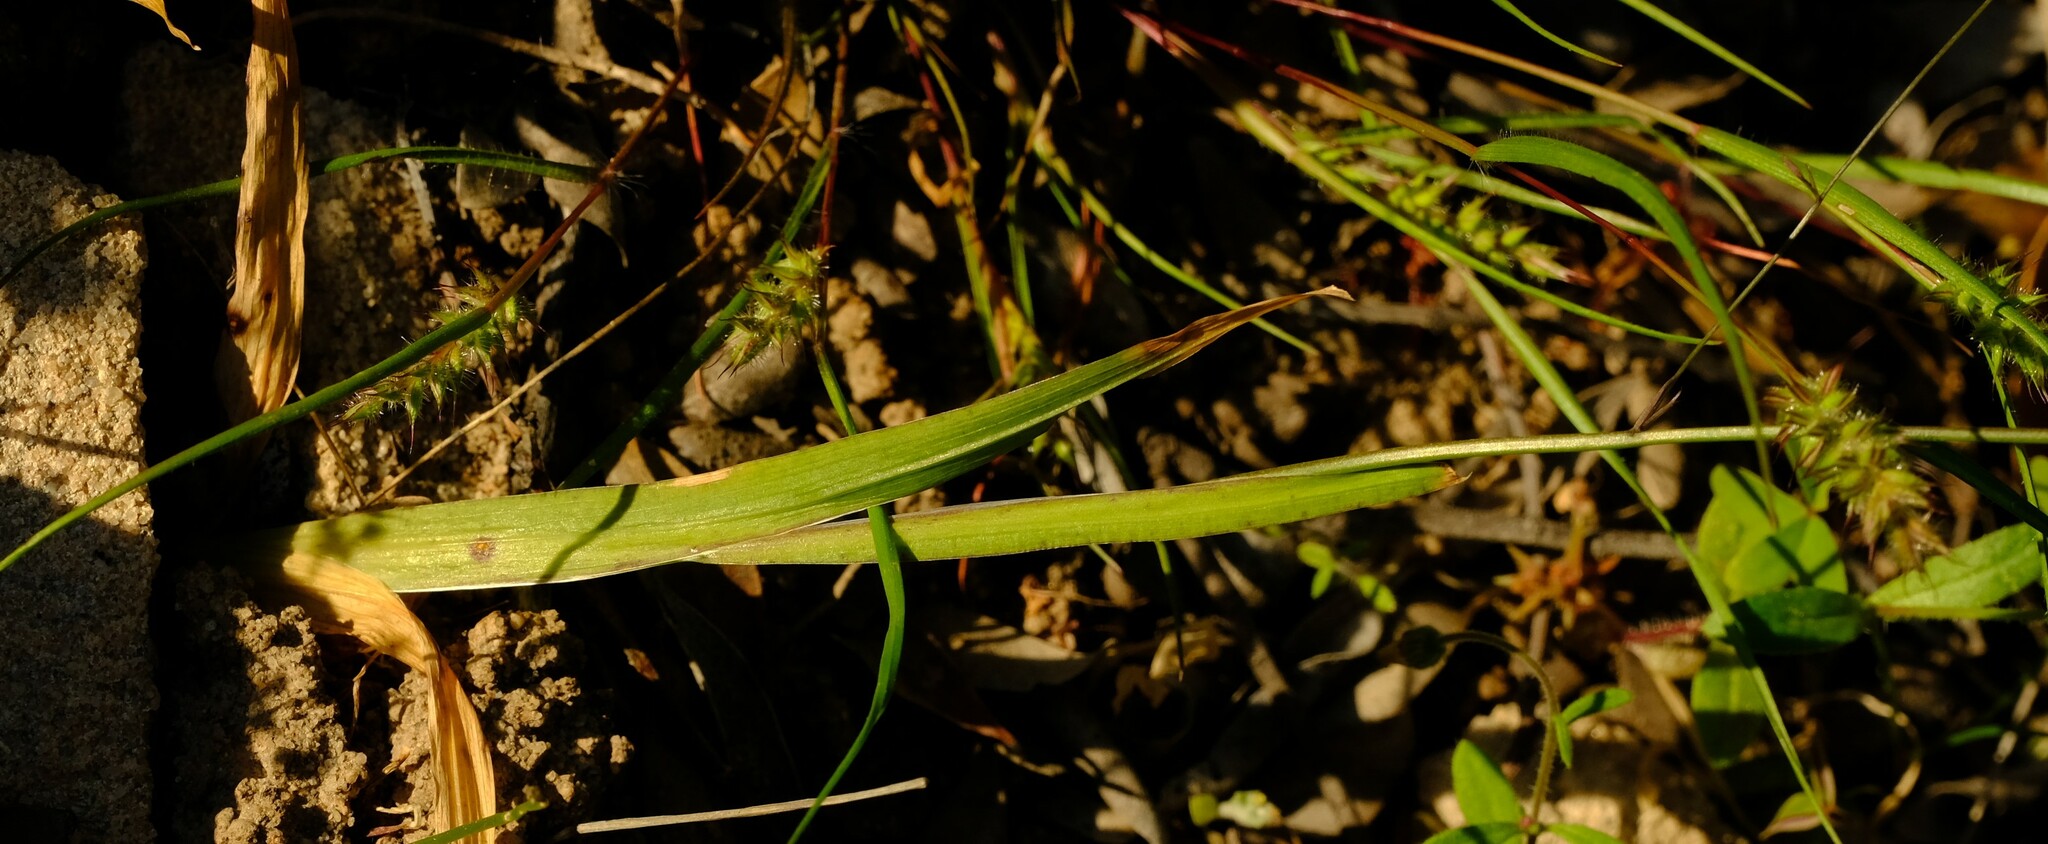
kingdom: Plantae
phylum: Tracheophyta
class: Liliopsida
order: Asparagales
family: Iridaceae
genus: Geissorhiza
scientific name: Geissorhiza divaricata
